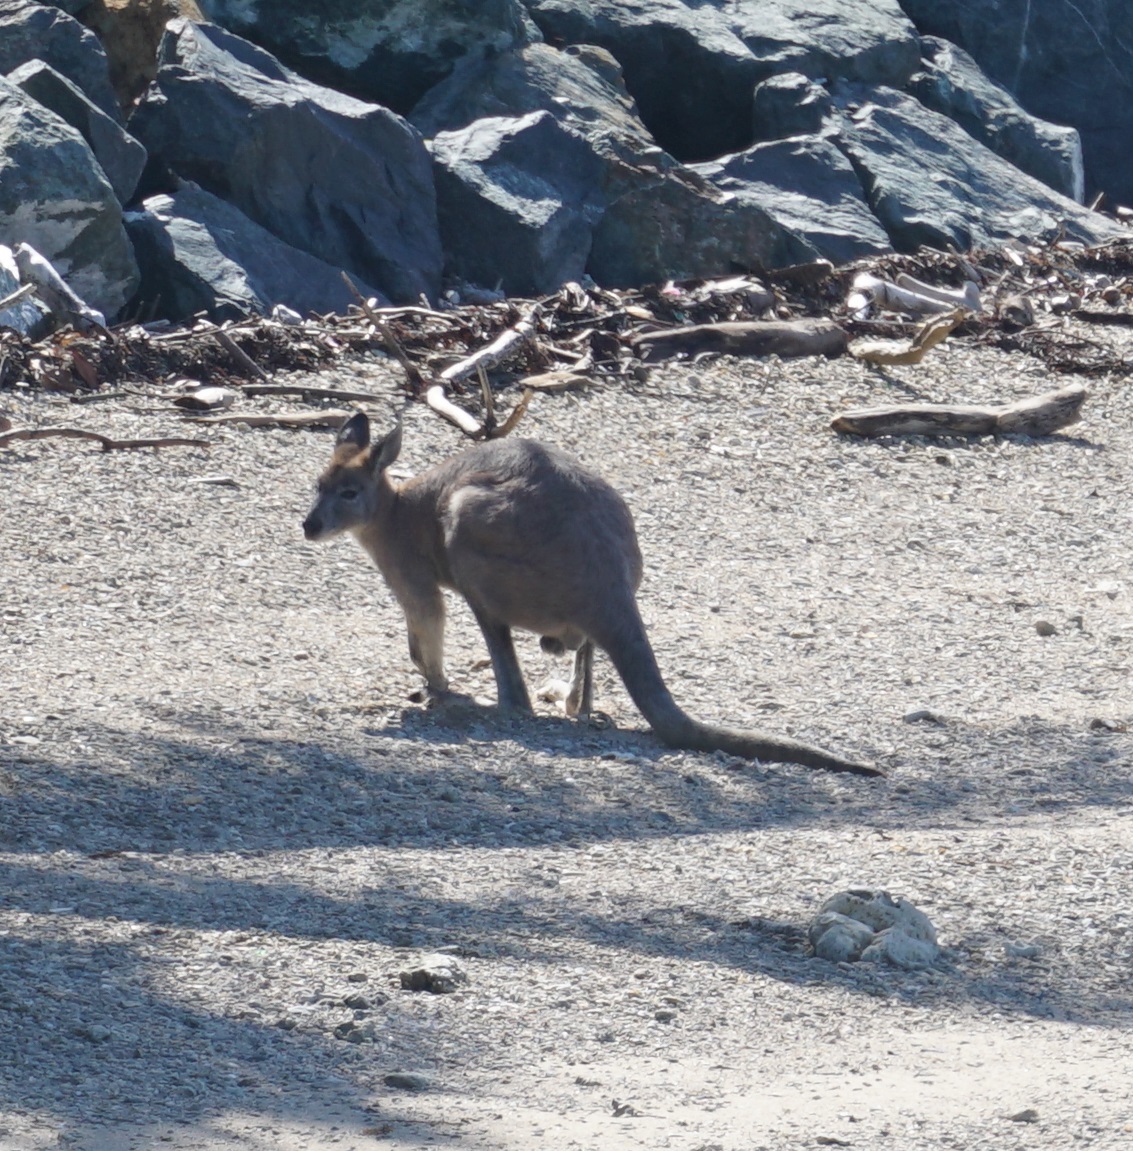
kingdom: Animalia
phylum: Chordata
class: Mammalia
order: Diprotodontia
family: Macropodidae
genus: Macropus
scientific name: Macropus robustus
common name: Eastern wallaroo
